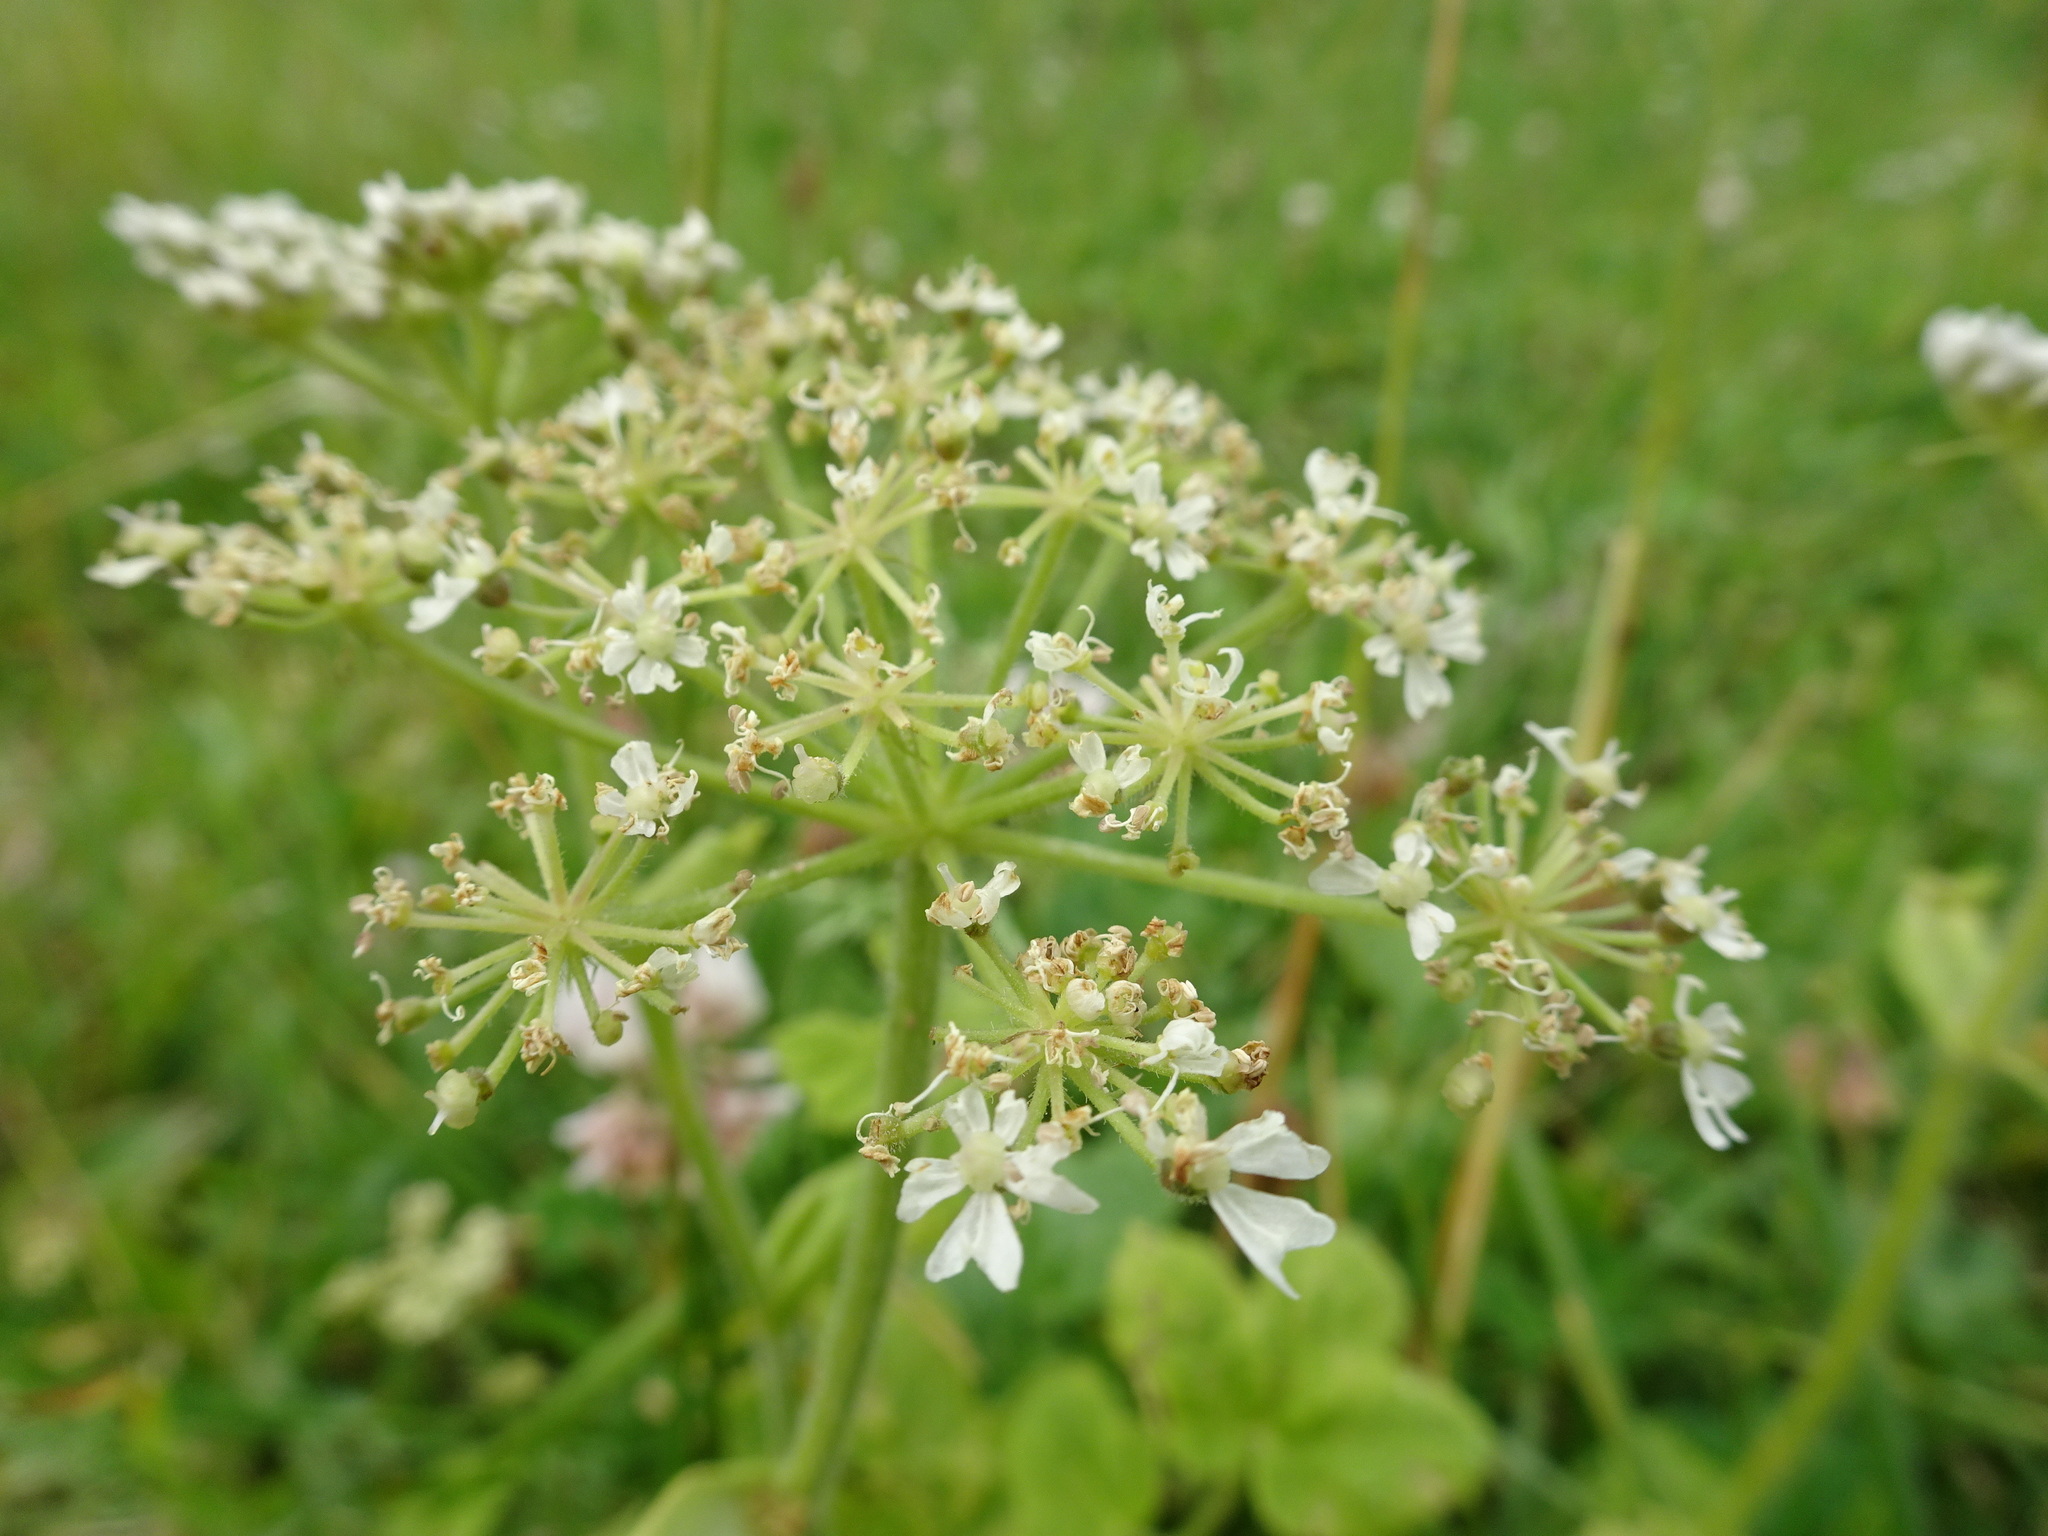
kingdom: Plantae
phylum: Tracheophyta
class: Magnoliopsida
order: Apiales
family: Apiaceae
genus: Heracleum
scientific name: Heracleum sphondylium
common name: Hogweed
